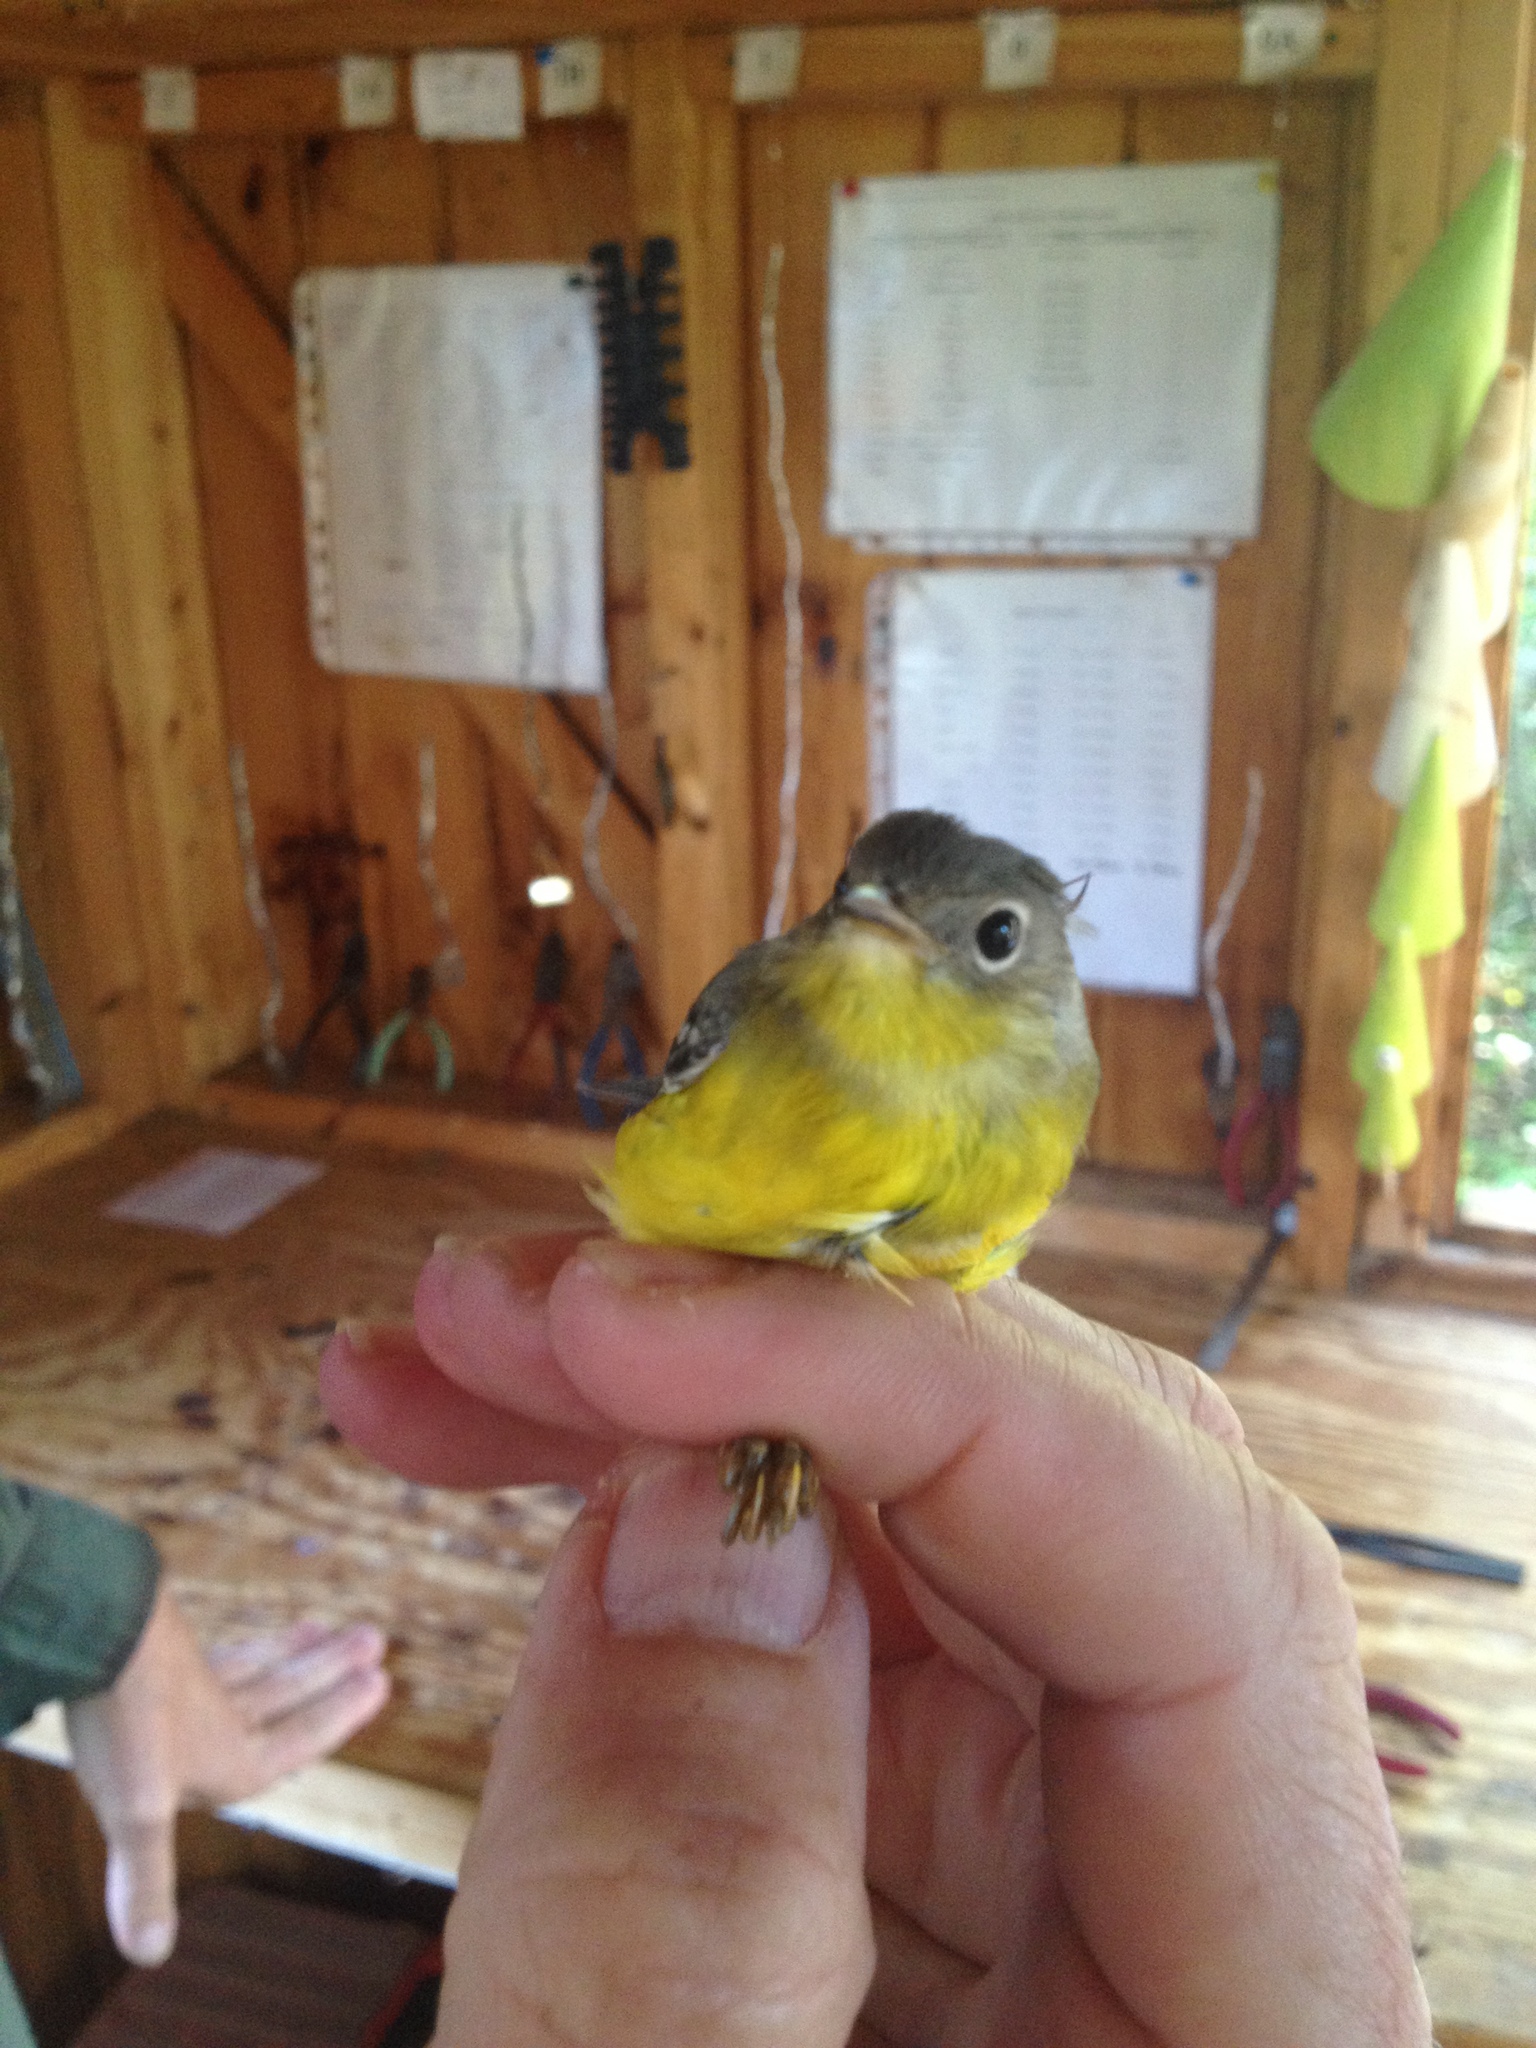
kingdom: Animalia
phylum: Chordata
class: Aves
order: Passeriformes
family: Parulidae
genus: Setophaga
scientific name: Setophaga magnolia
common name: Magnolia warbler
